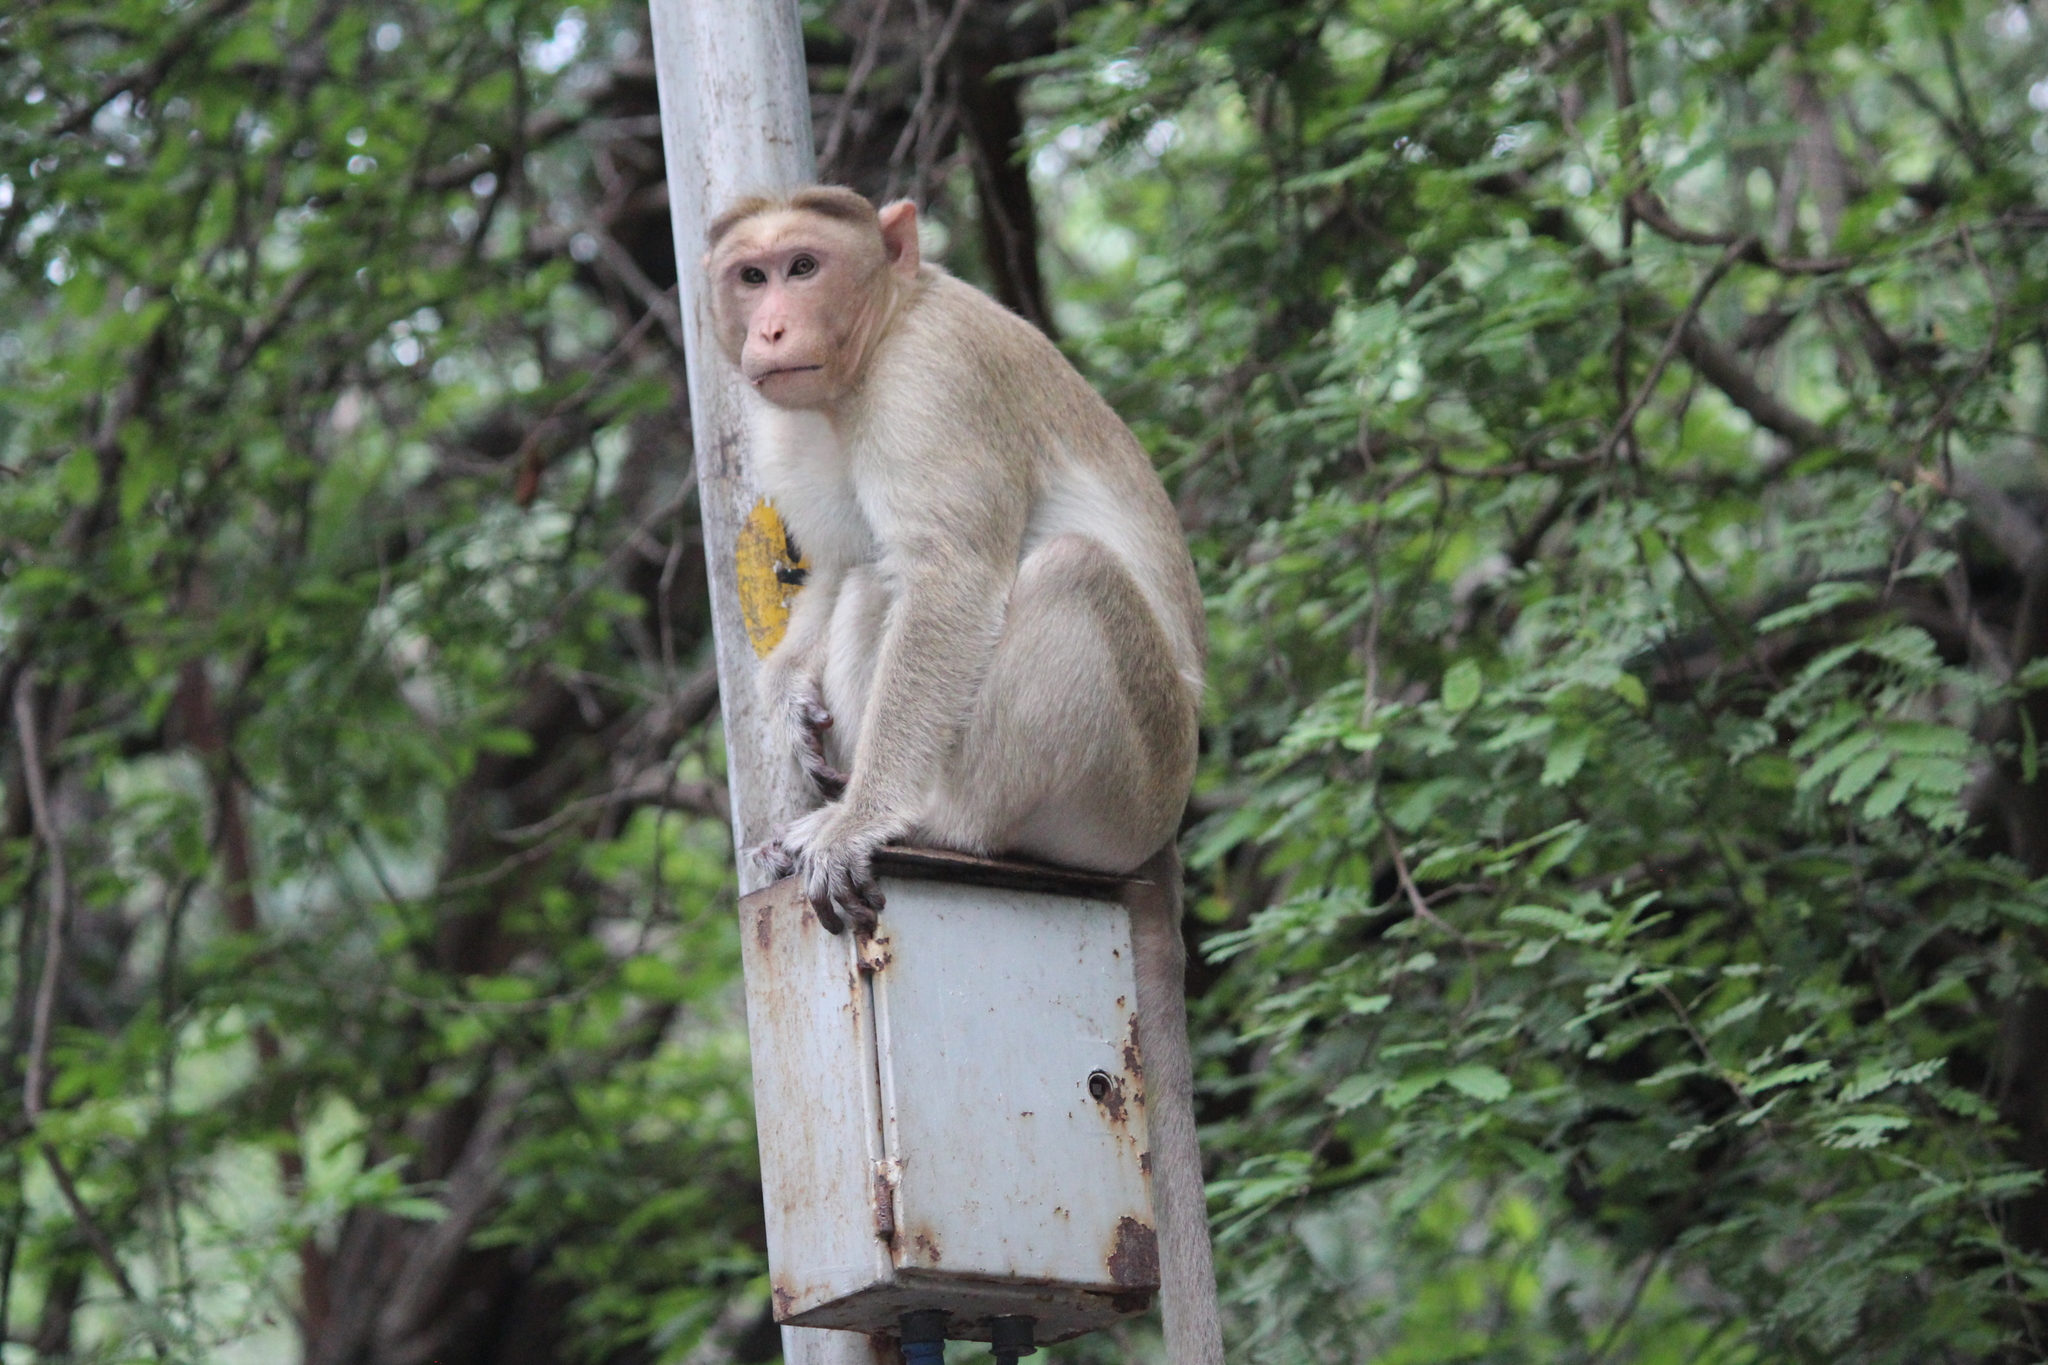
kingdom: Animalia
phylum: Chordata
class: Mammalia
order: Primates
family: Cercopithecidae
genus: Macaca
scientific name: Macaca radiata
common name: Bonnet macaque
